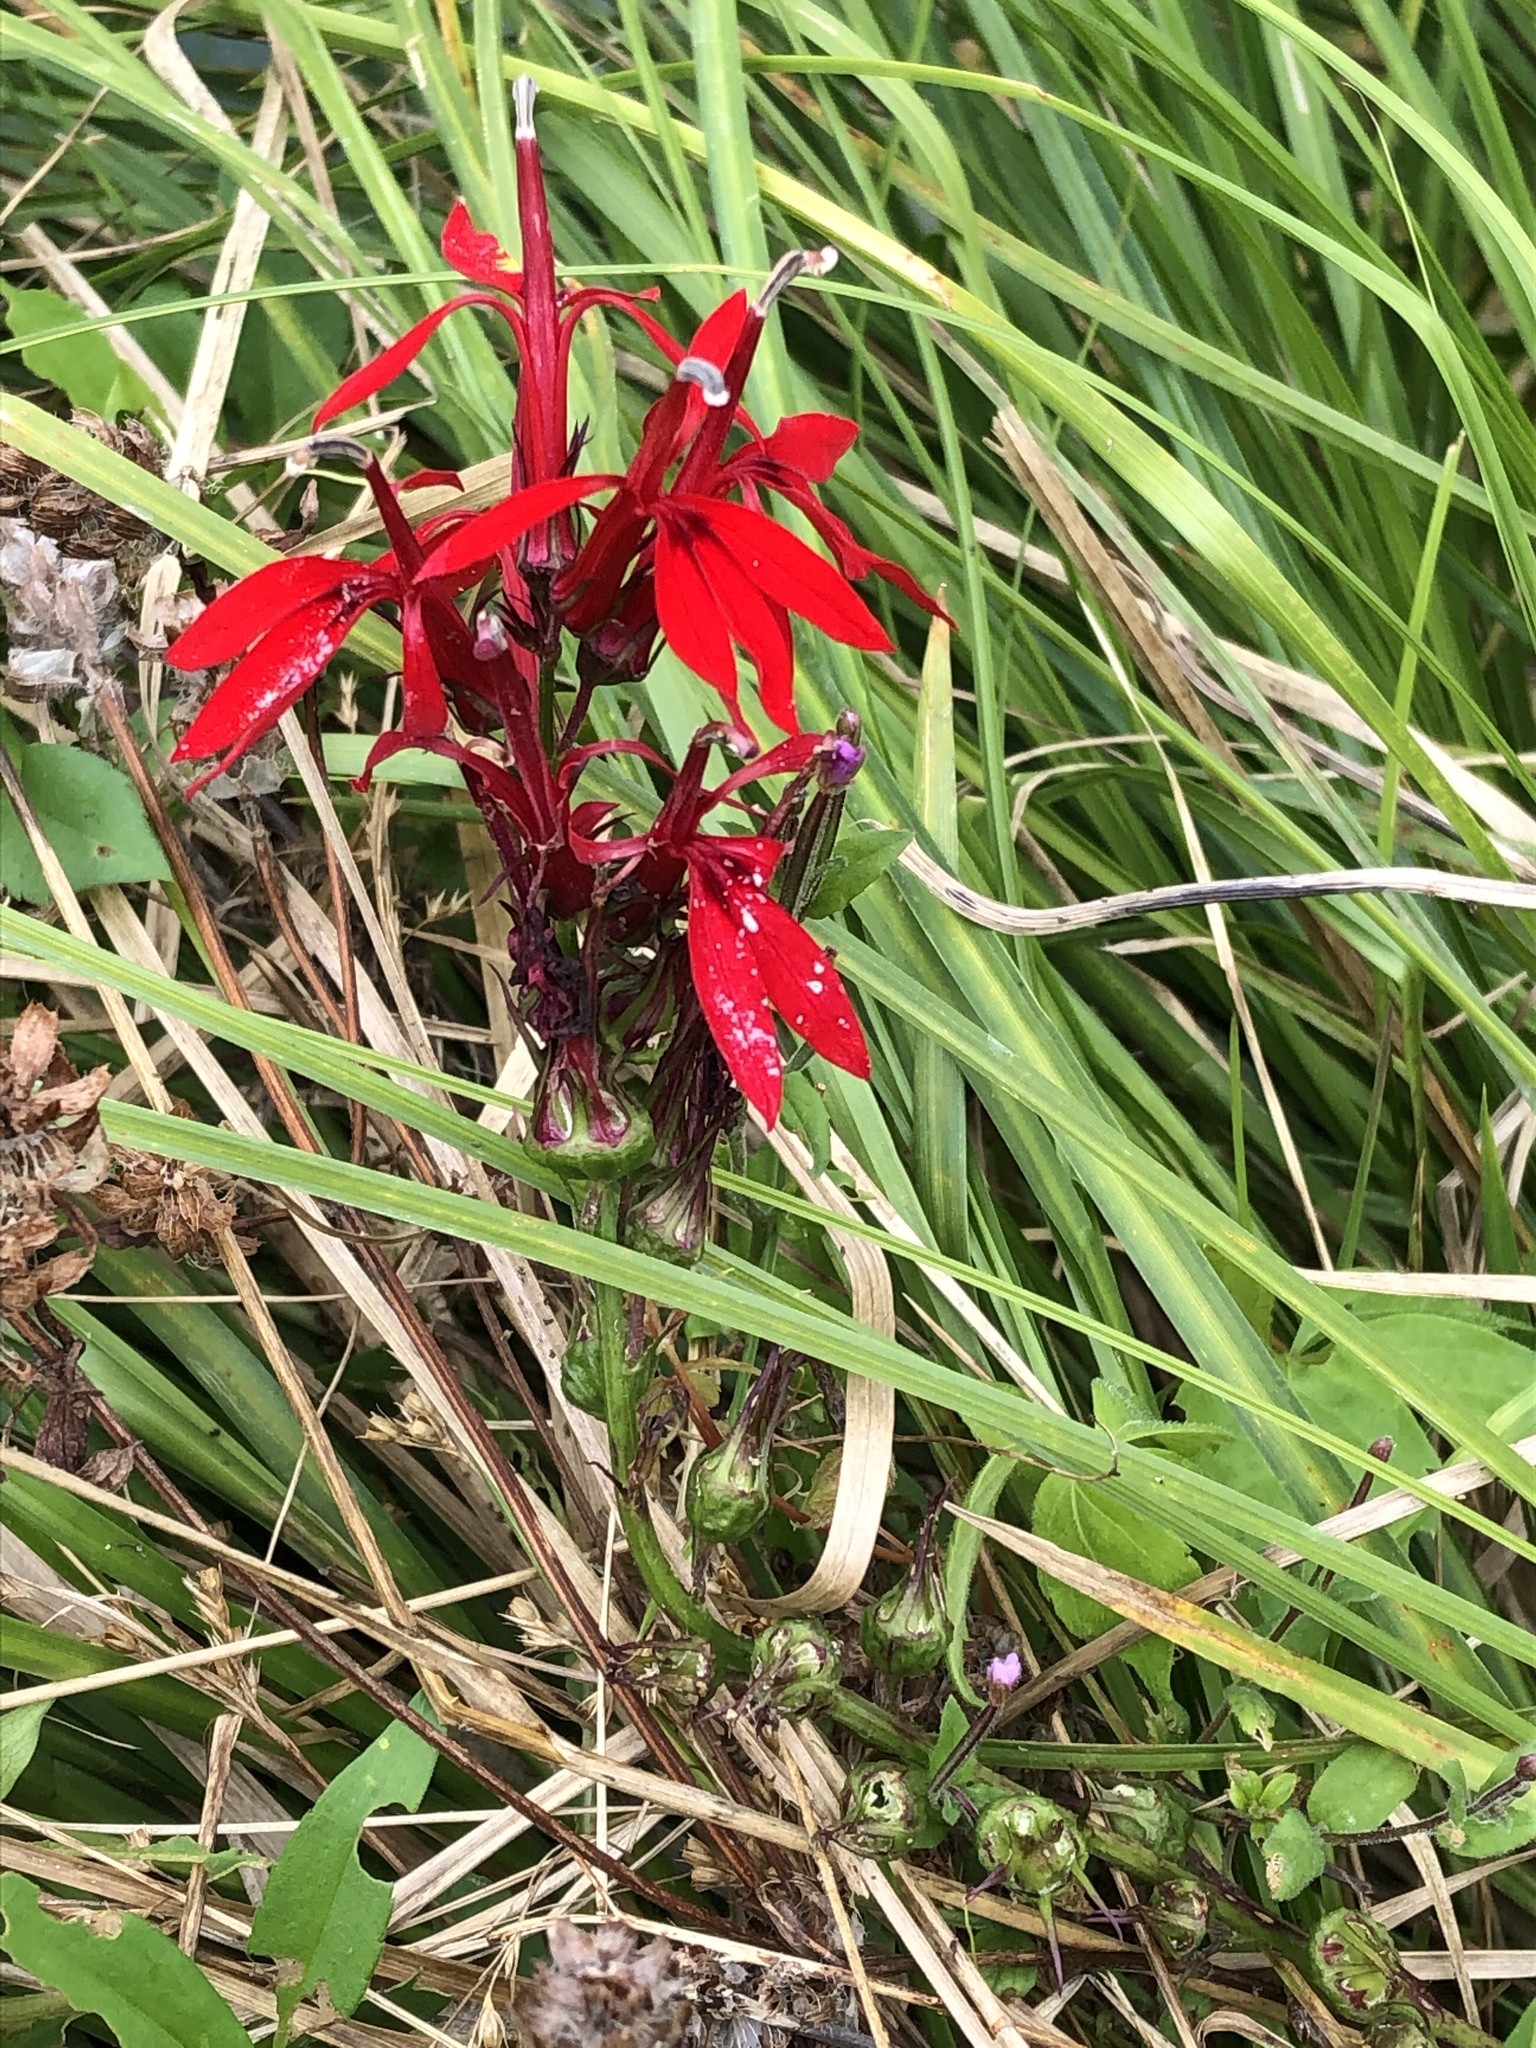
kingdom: Plantae
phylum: Tracheophyta
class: Magnoliopsida
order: Asterales
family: Campanulaceae
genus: Lobelia
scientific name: Lobelia cardinalis
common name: Cardinal flower
